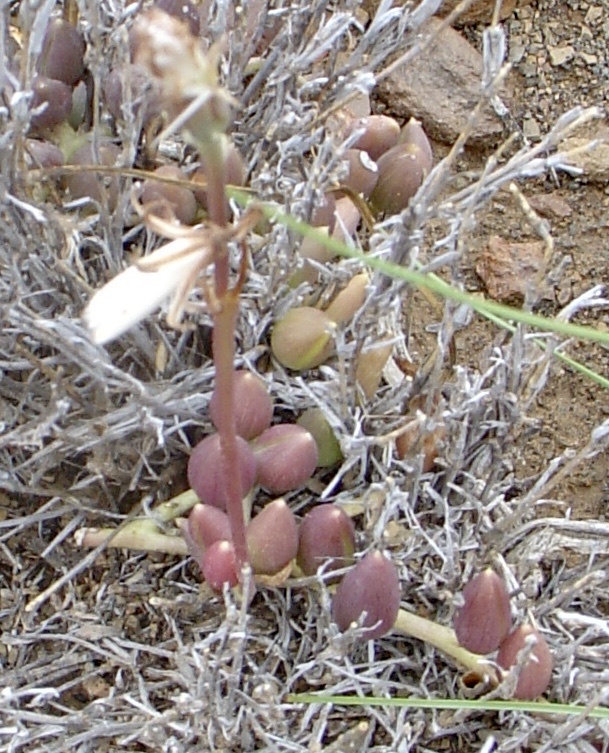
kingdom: Plantae
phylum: Tracheophyta
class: Magnoliopsida
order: Asterales
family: Asteraceae
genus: Curio
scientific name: Curio radicans
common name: Creeping-berry
